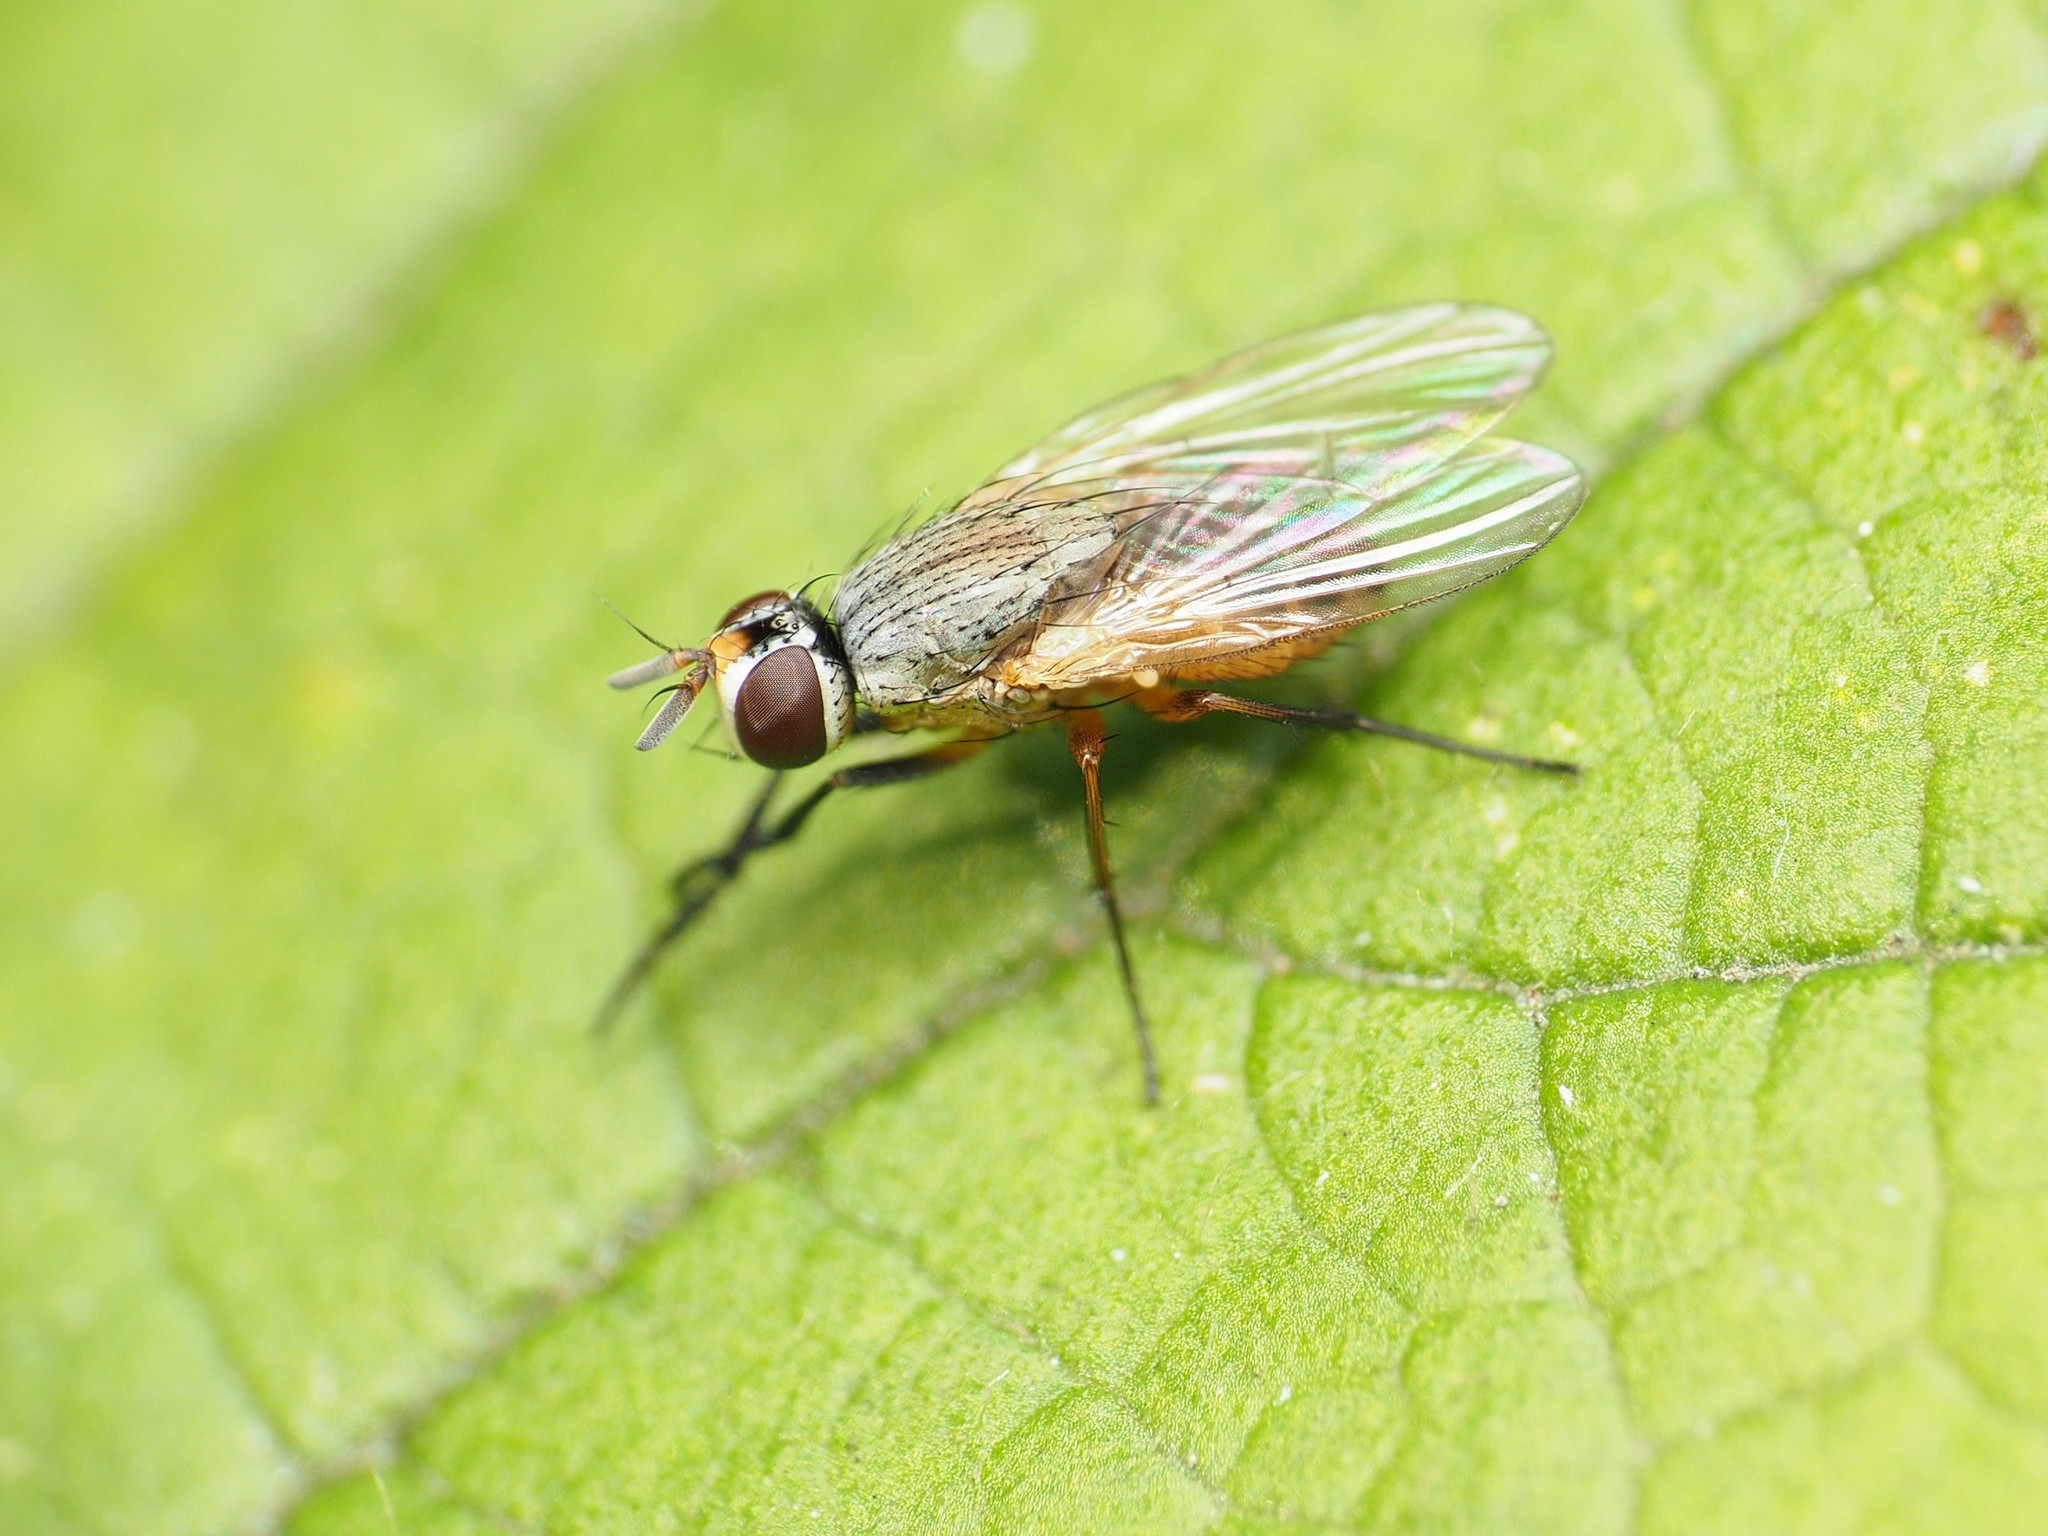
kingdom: Animalia
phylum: Arthropoda
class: Insecta
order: Diptera
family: Muscidae
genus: Atherigona
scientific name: Atherigona reversura
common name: Bermudagrass stem maggot
